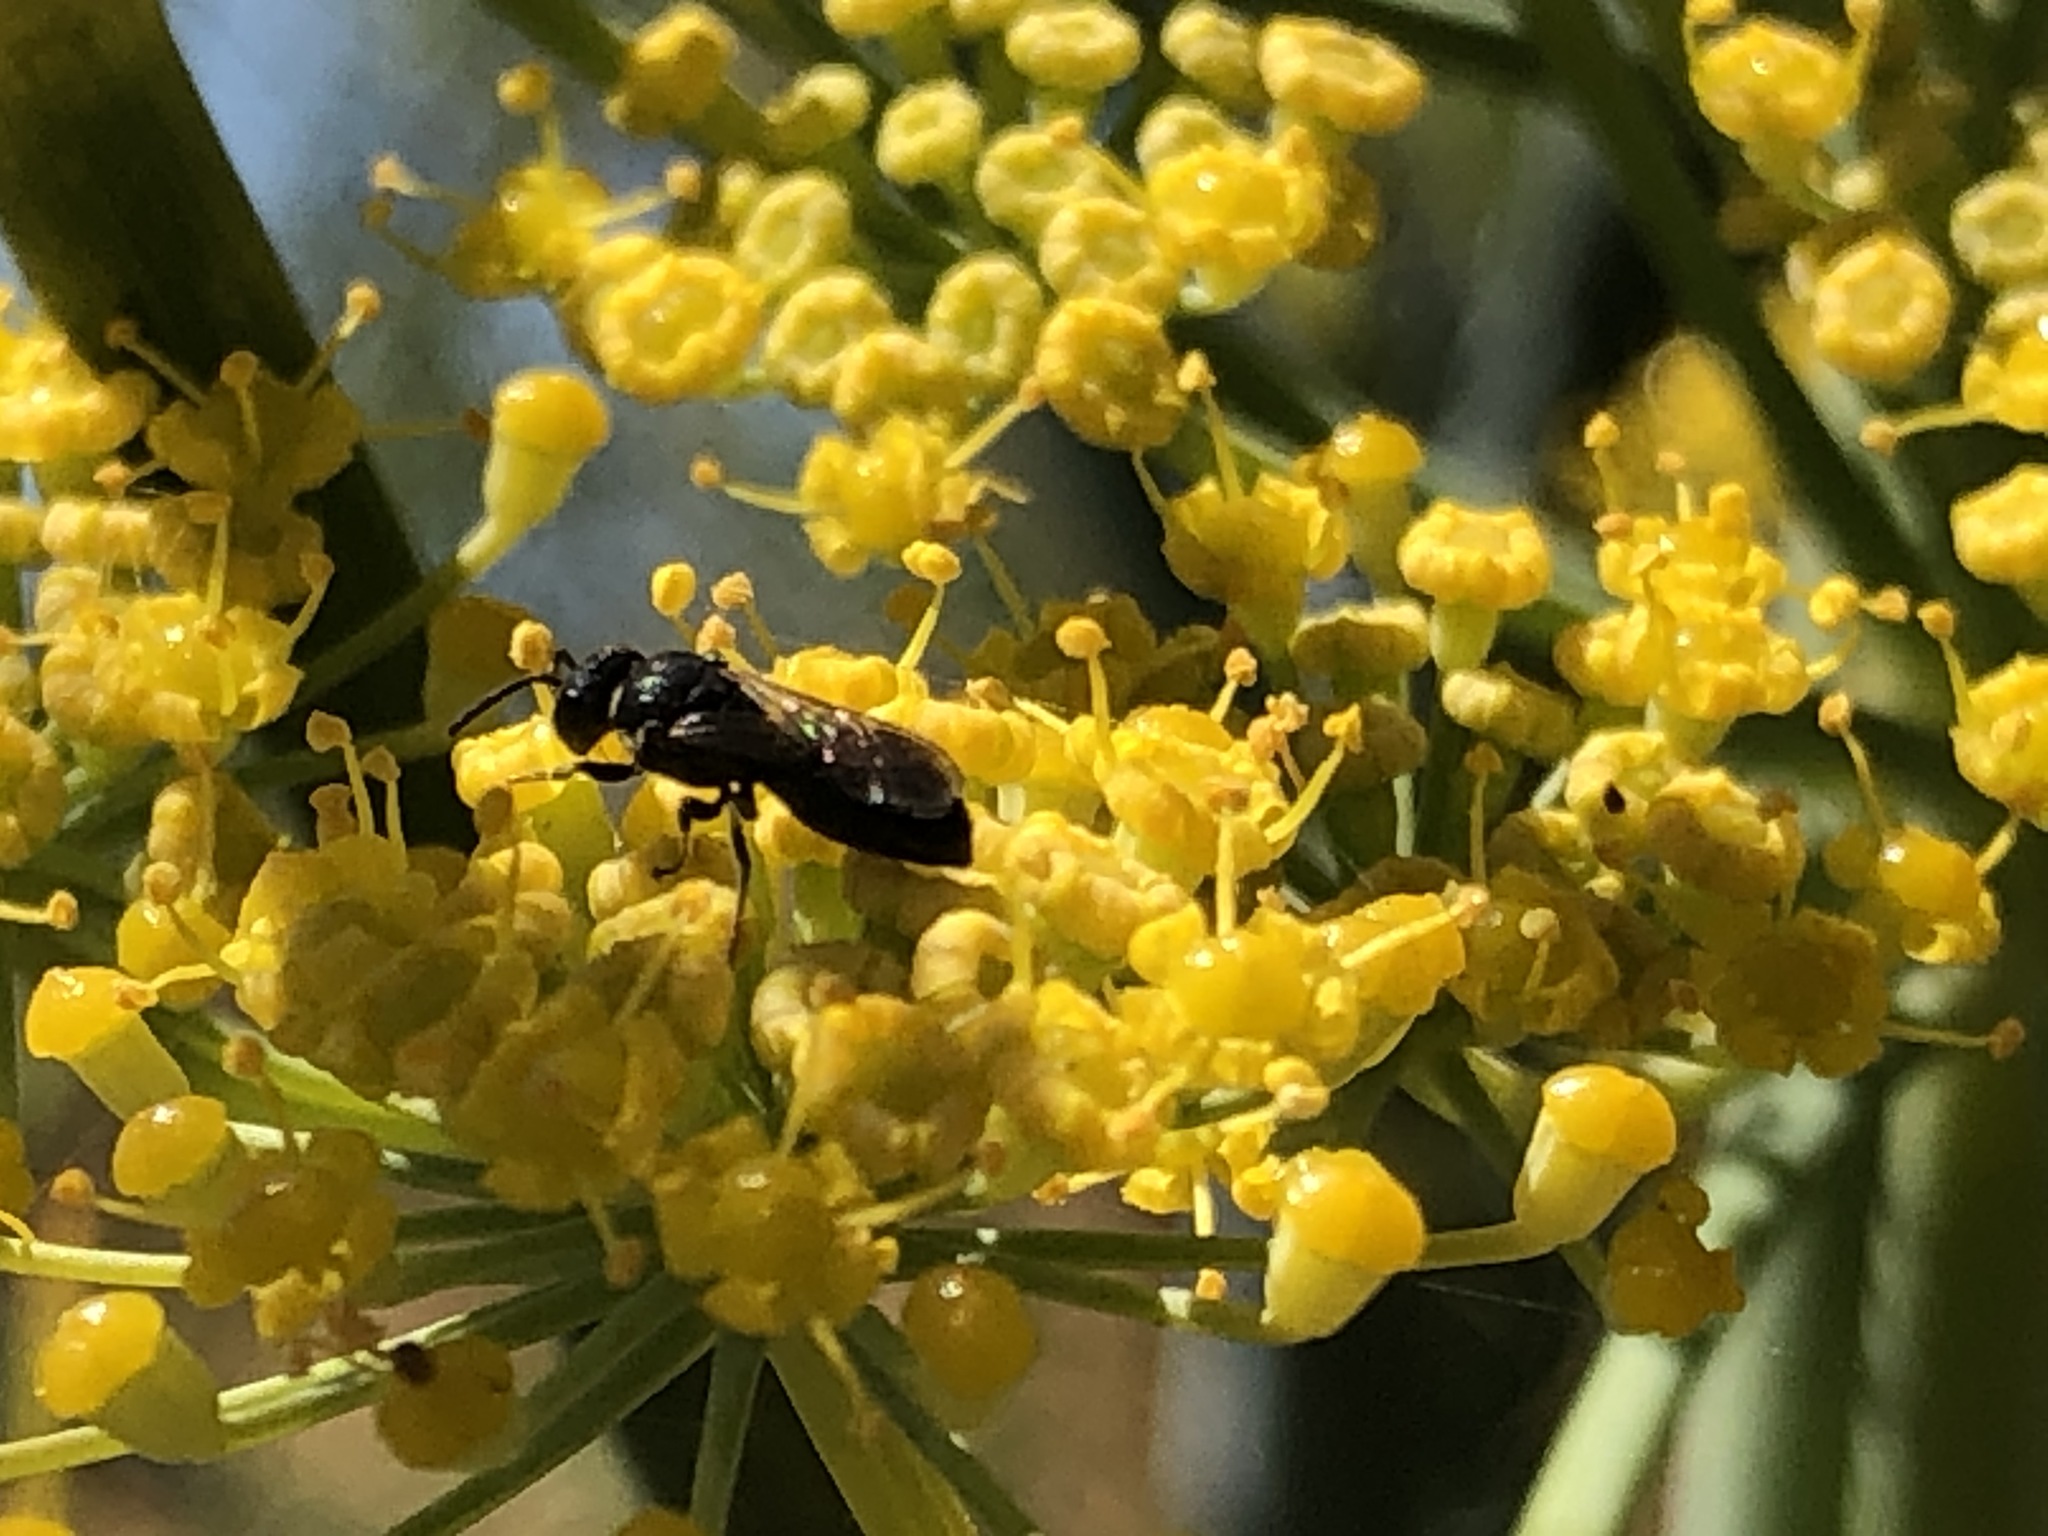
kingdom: Animalia
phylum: Arthropoda
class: Insecta
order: Hymenoptera
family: Colletidae
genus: Hylaeus
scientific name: Hylaeus
